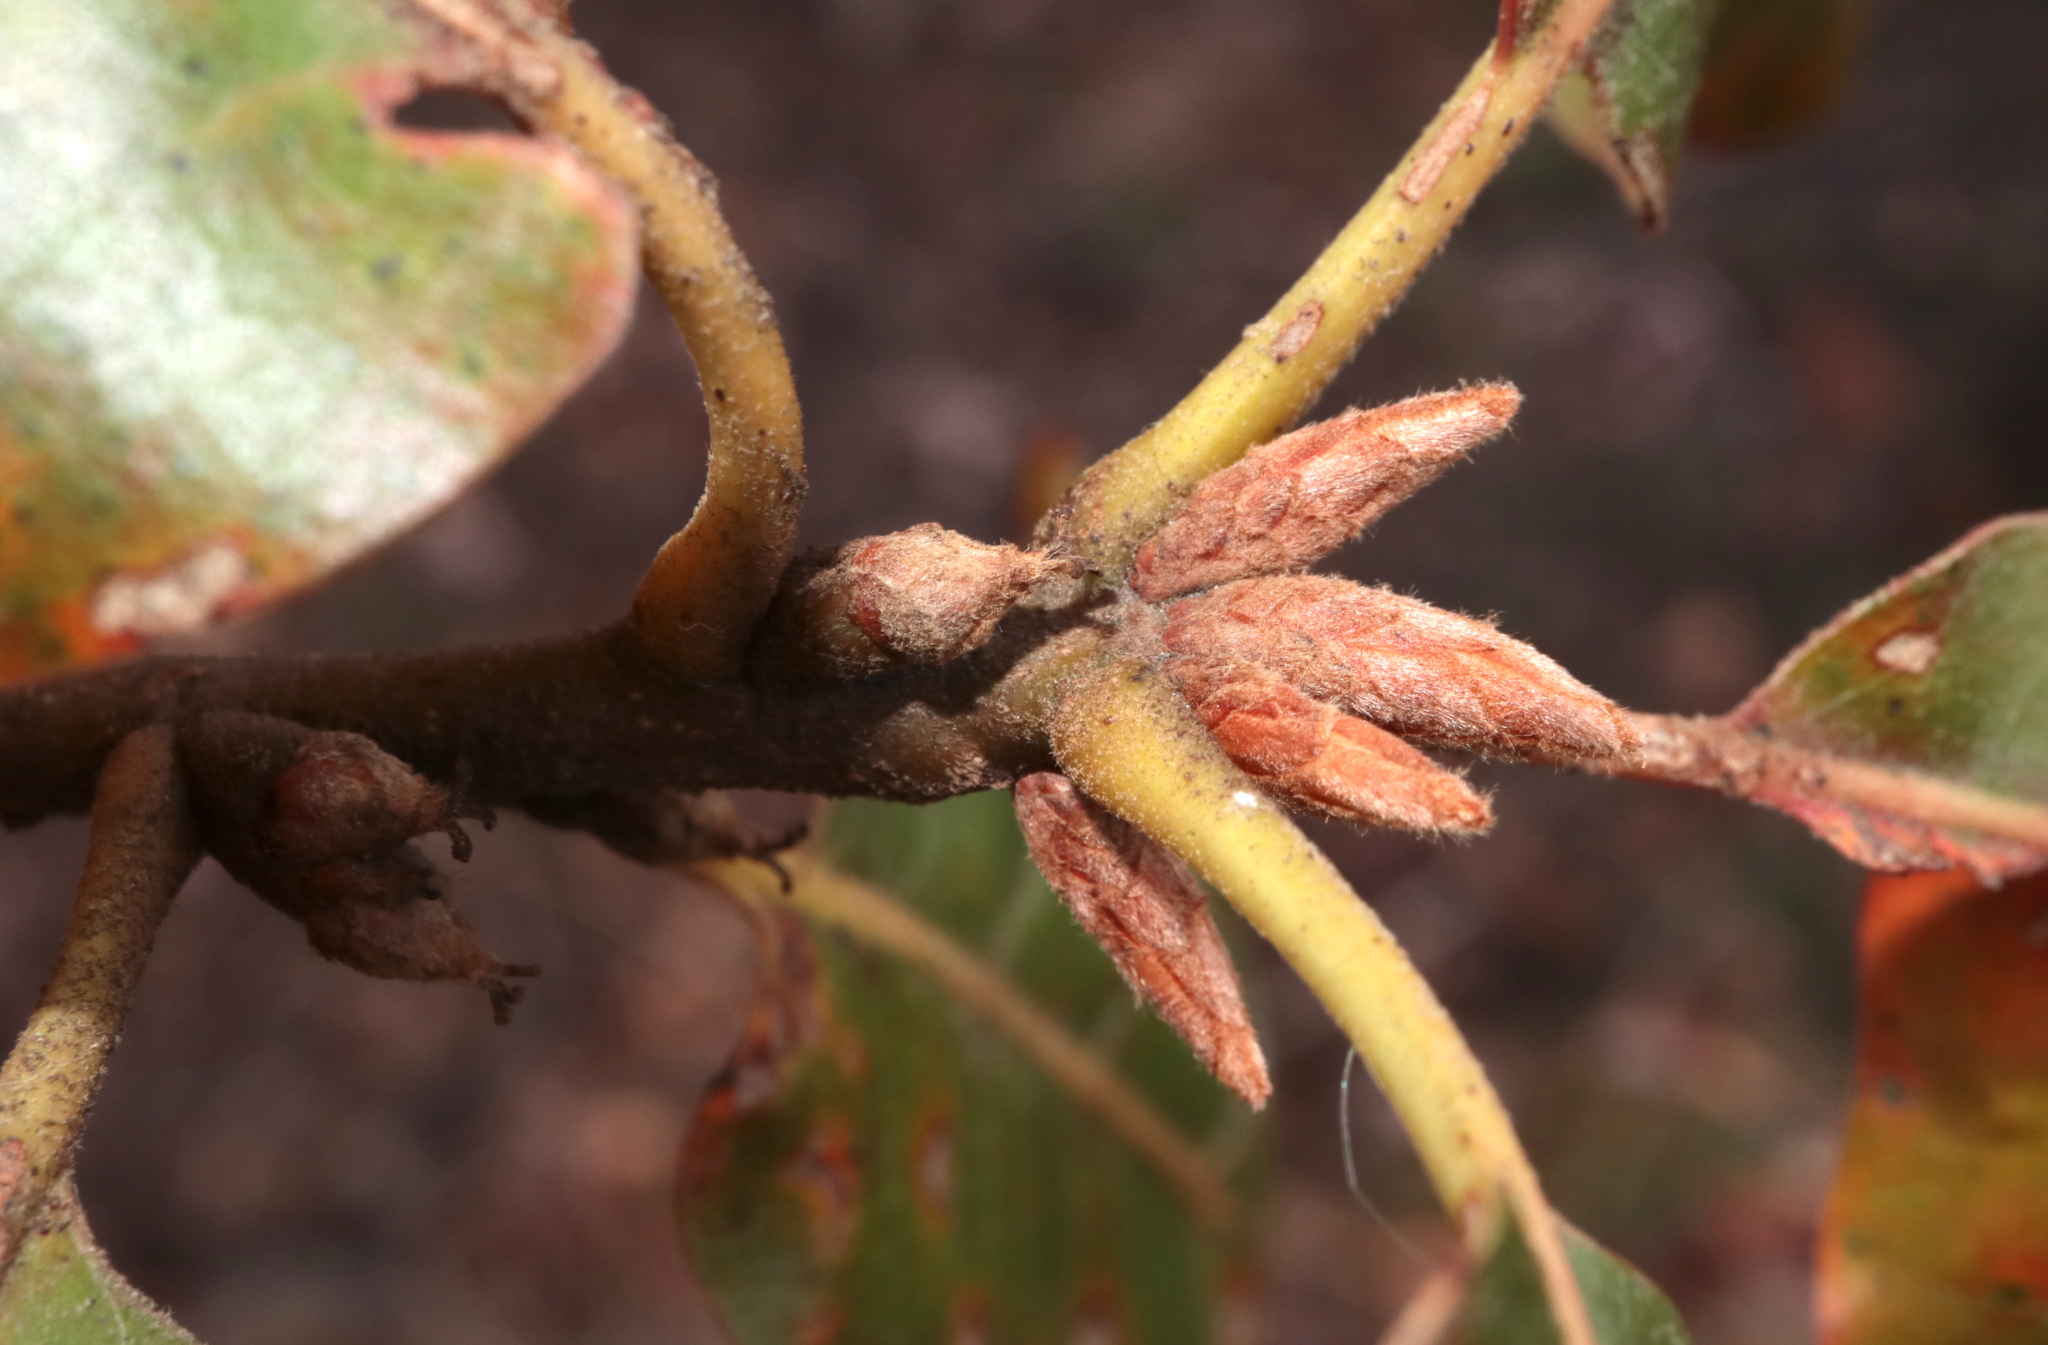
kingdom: Plantae
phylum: Tracheophyta
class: Magnoliopsida
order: Fagales
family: Fagaceae
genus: Quercus
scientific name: Quercus marilandica
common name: Blackjack oak
